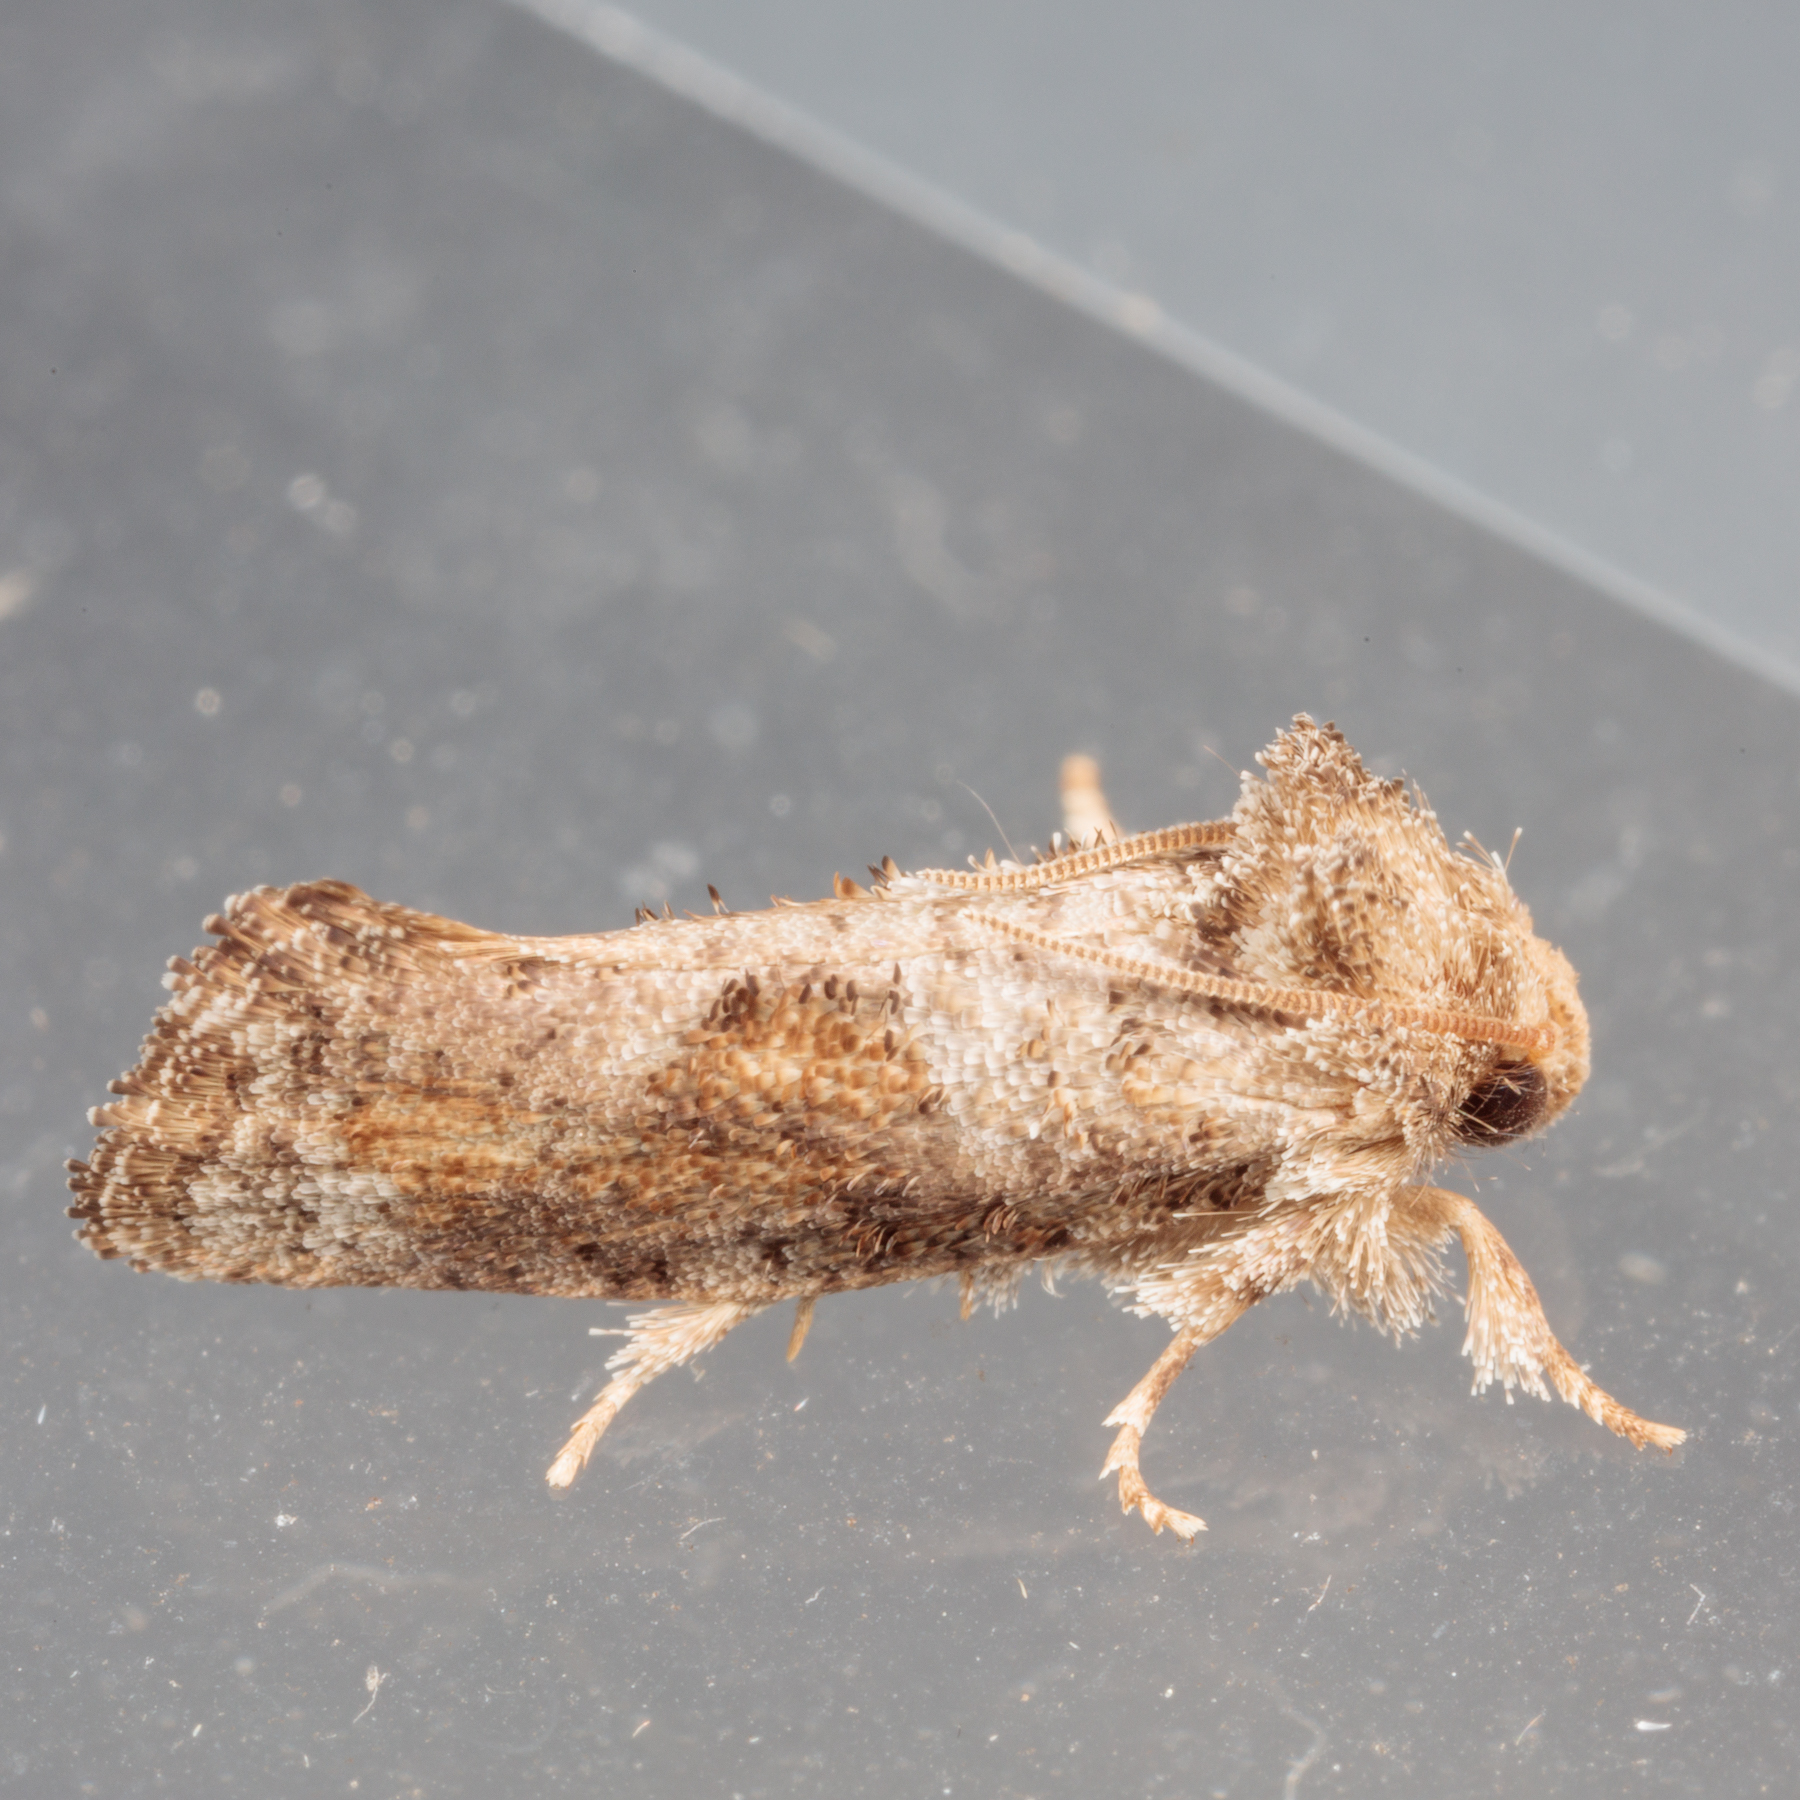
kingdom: Animalia
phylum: Arthropoda
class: Insecta
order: Lepidoptera
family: Tineidae
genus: Acrolophus
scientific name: Acrolophus piger
